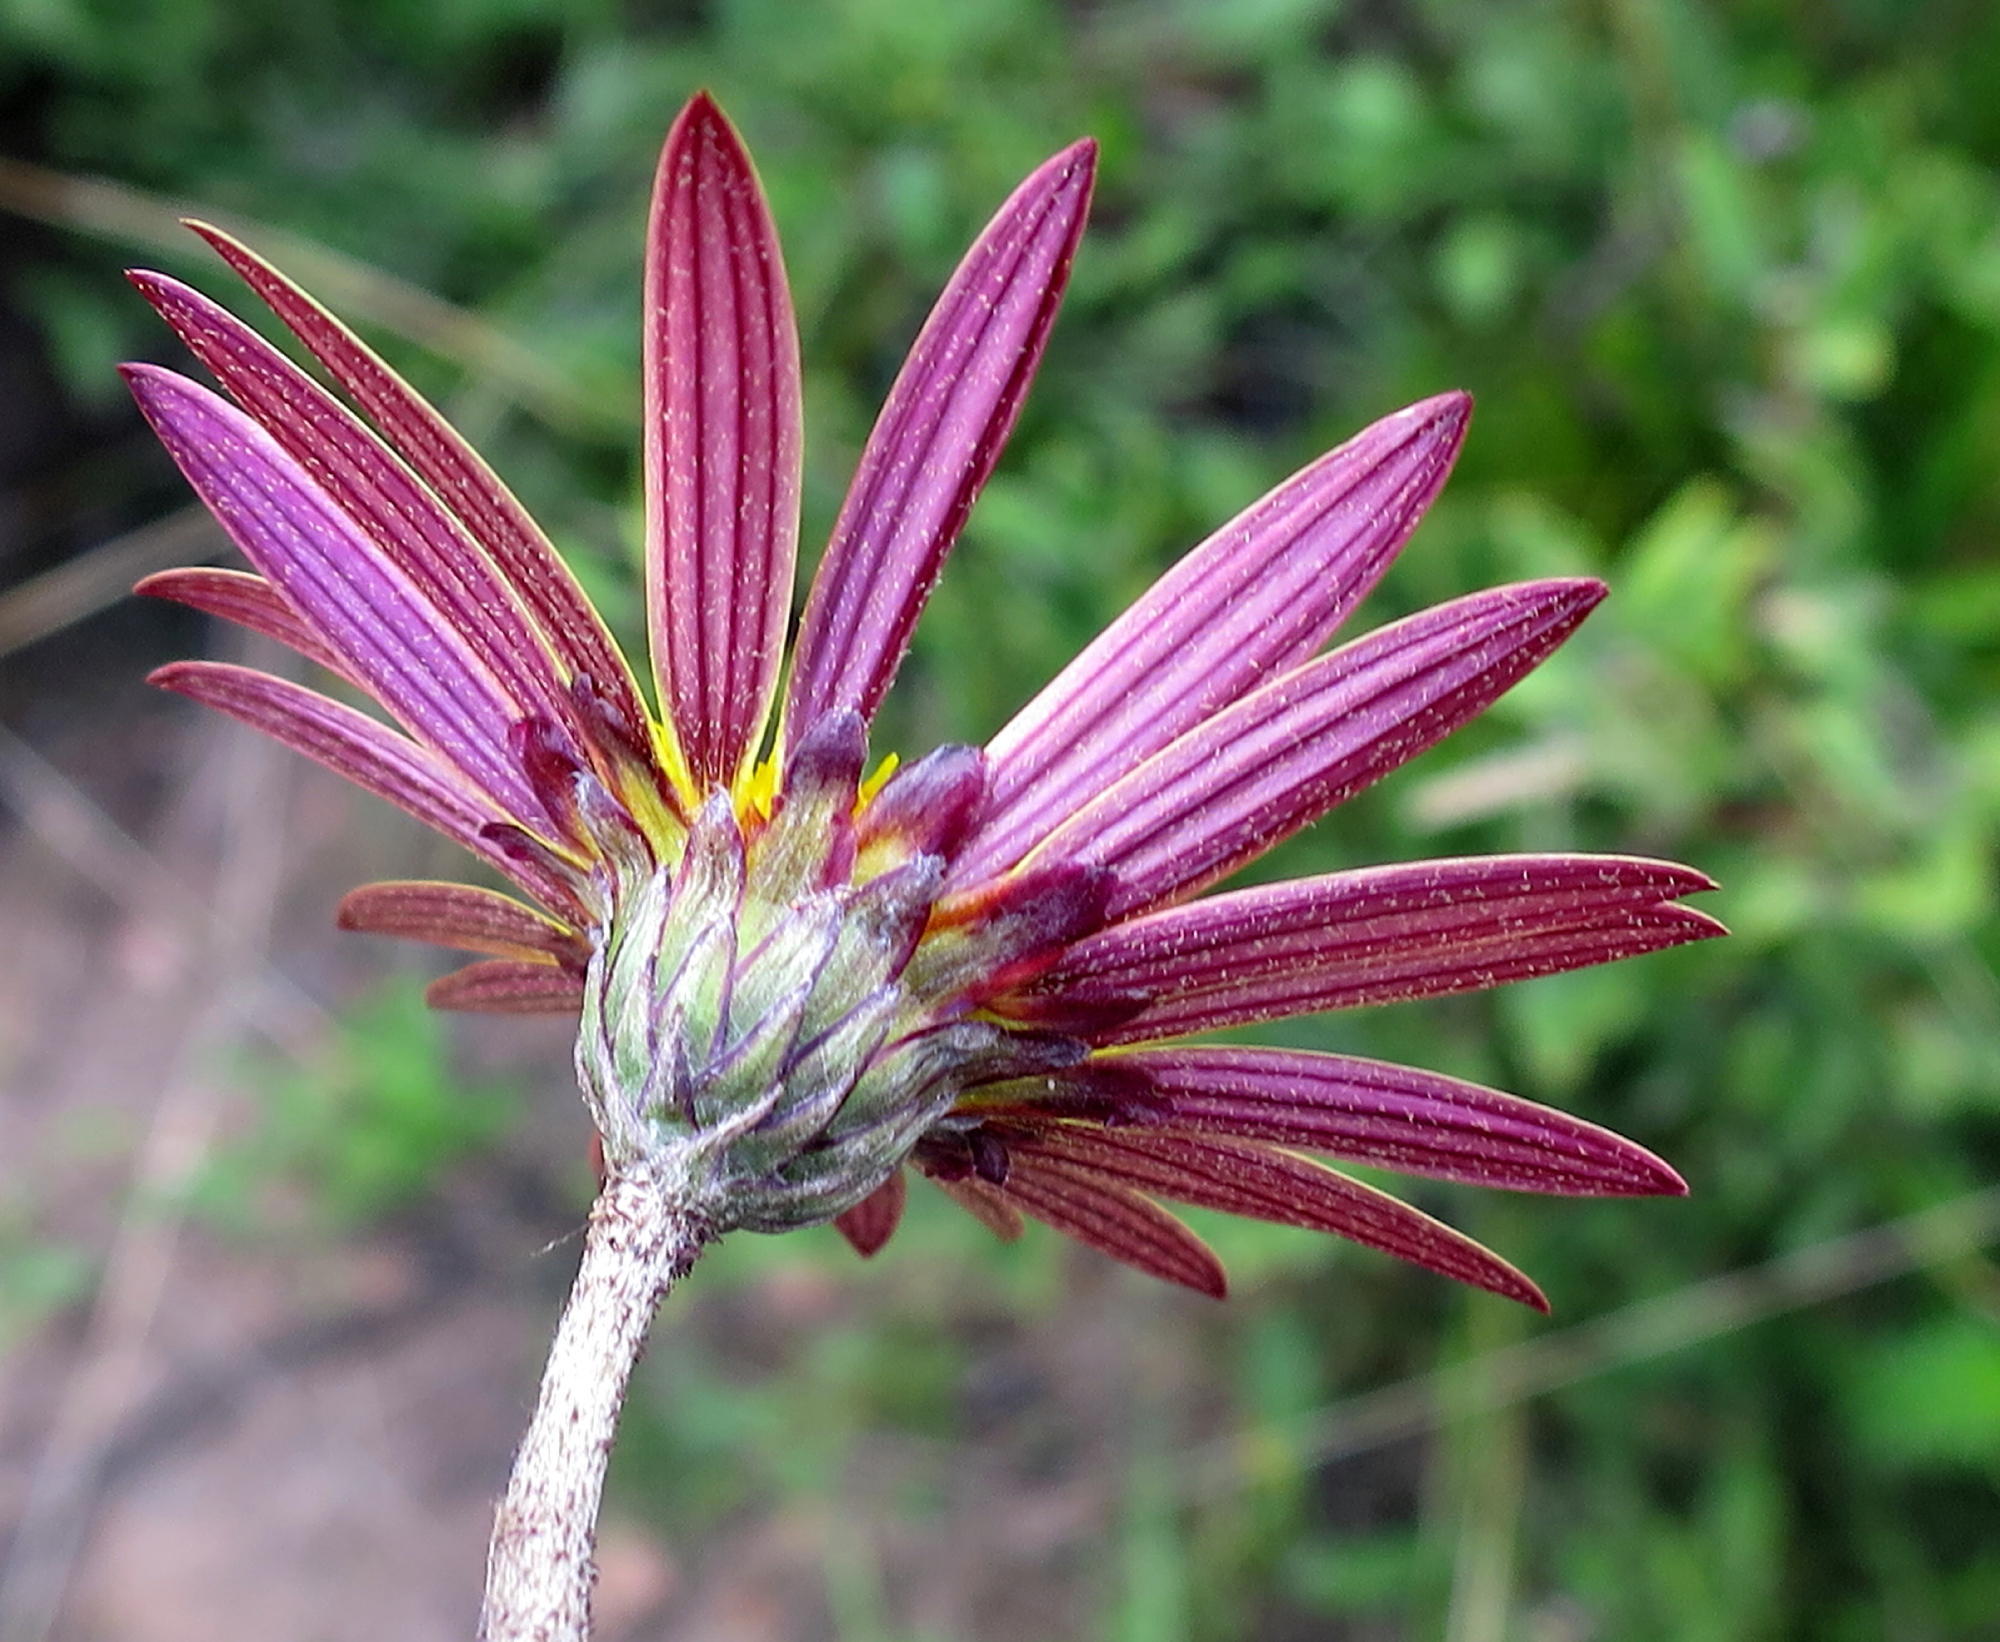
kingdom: Plantae
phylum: Tracheophyta
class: Magnoliopsida
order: Asterales
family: Asteraceae
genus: Haplocarpha
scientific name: Haplocarpha lyrata
